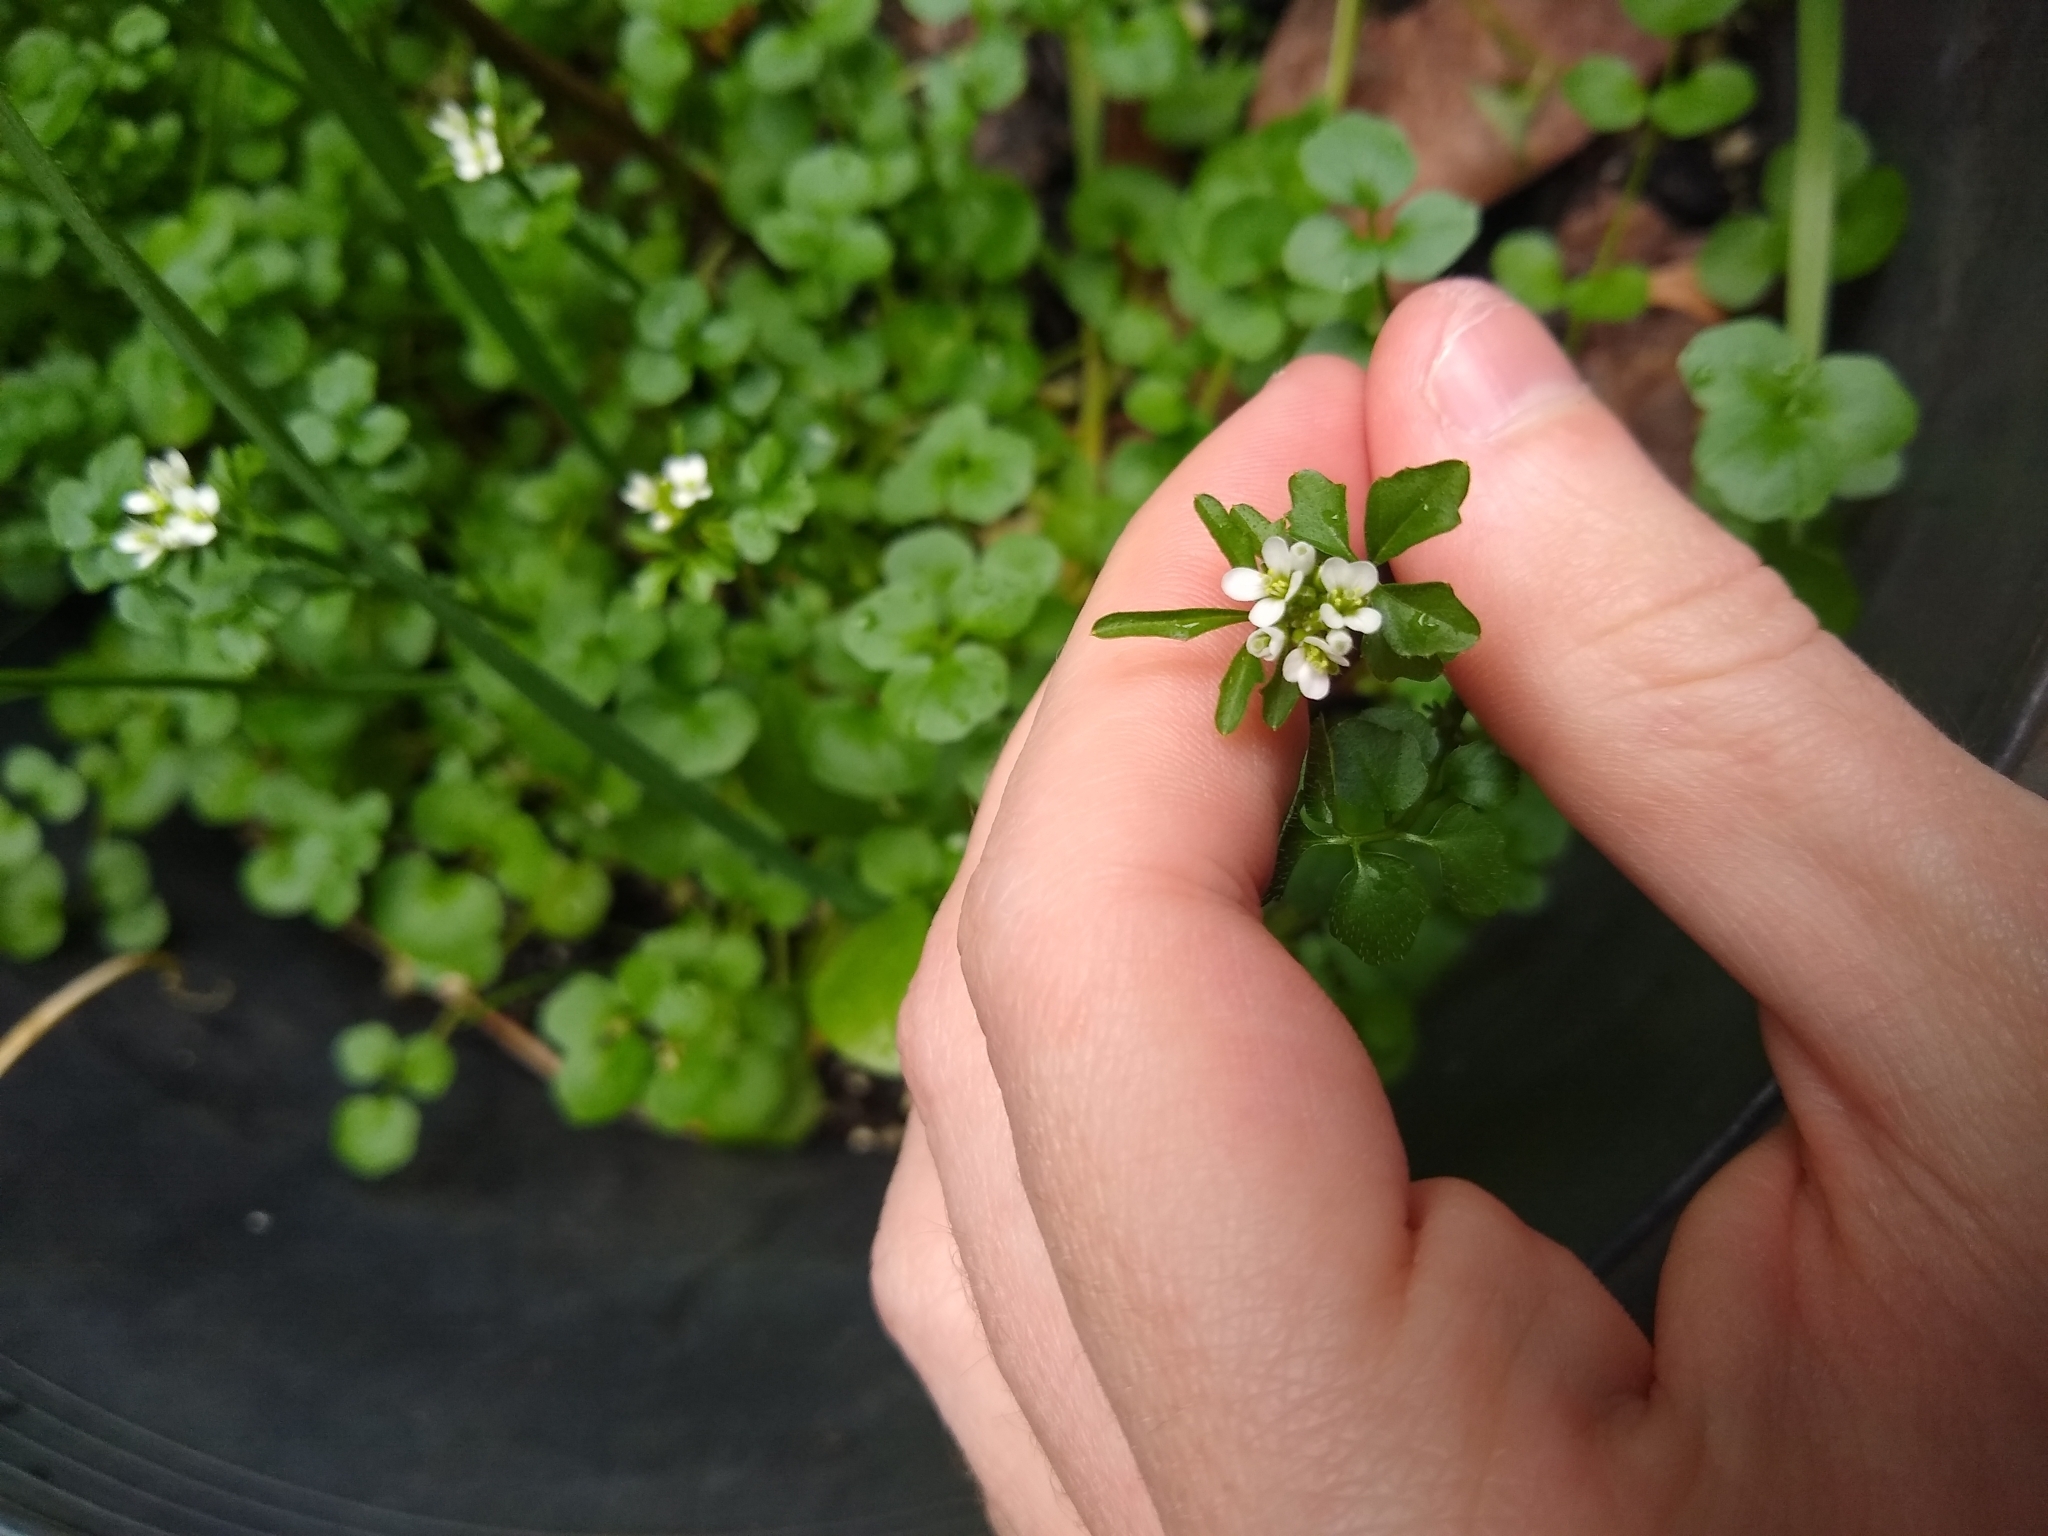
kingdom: Plantae
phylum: Tracheophyta
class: Magnoliopsida
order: Brassicales
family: Brassicaceae
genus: Cardamine
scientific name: Cardamine hirsuta
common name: Hairy bittercress
